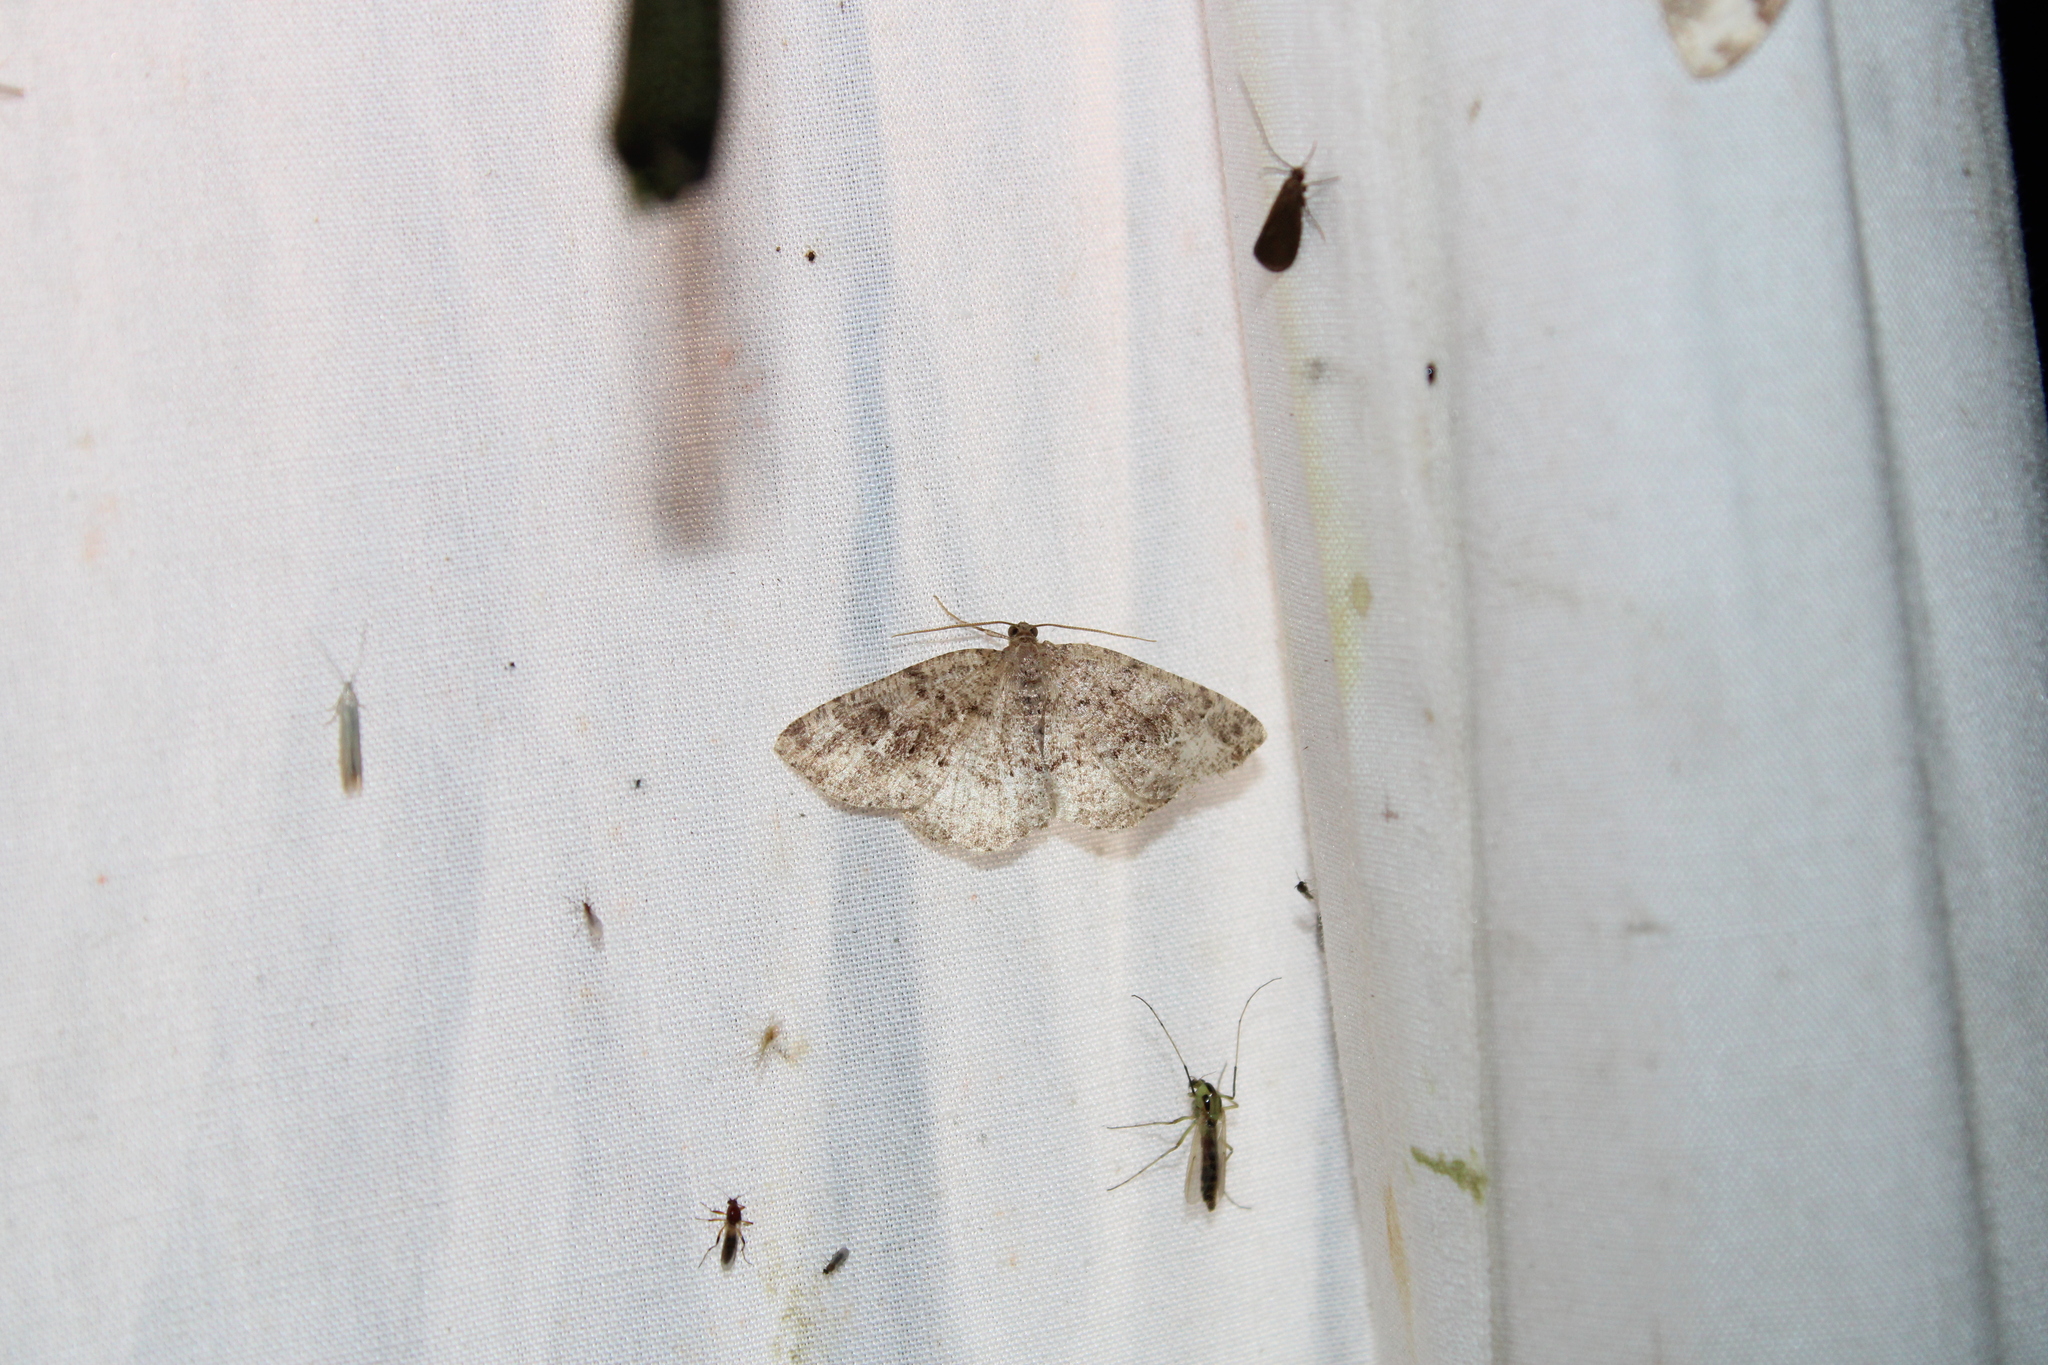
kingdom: Animalia
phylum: Arthropoda
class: Insecta
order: Lepidoptera
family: Geometridae
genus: Homochlodes
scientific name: Homochlodes fritillaria
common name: Pale homochlodes
